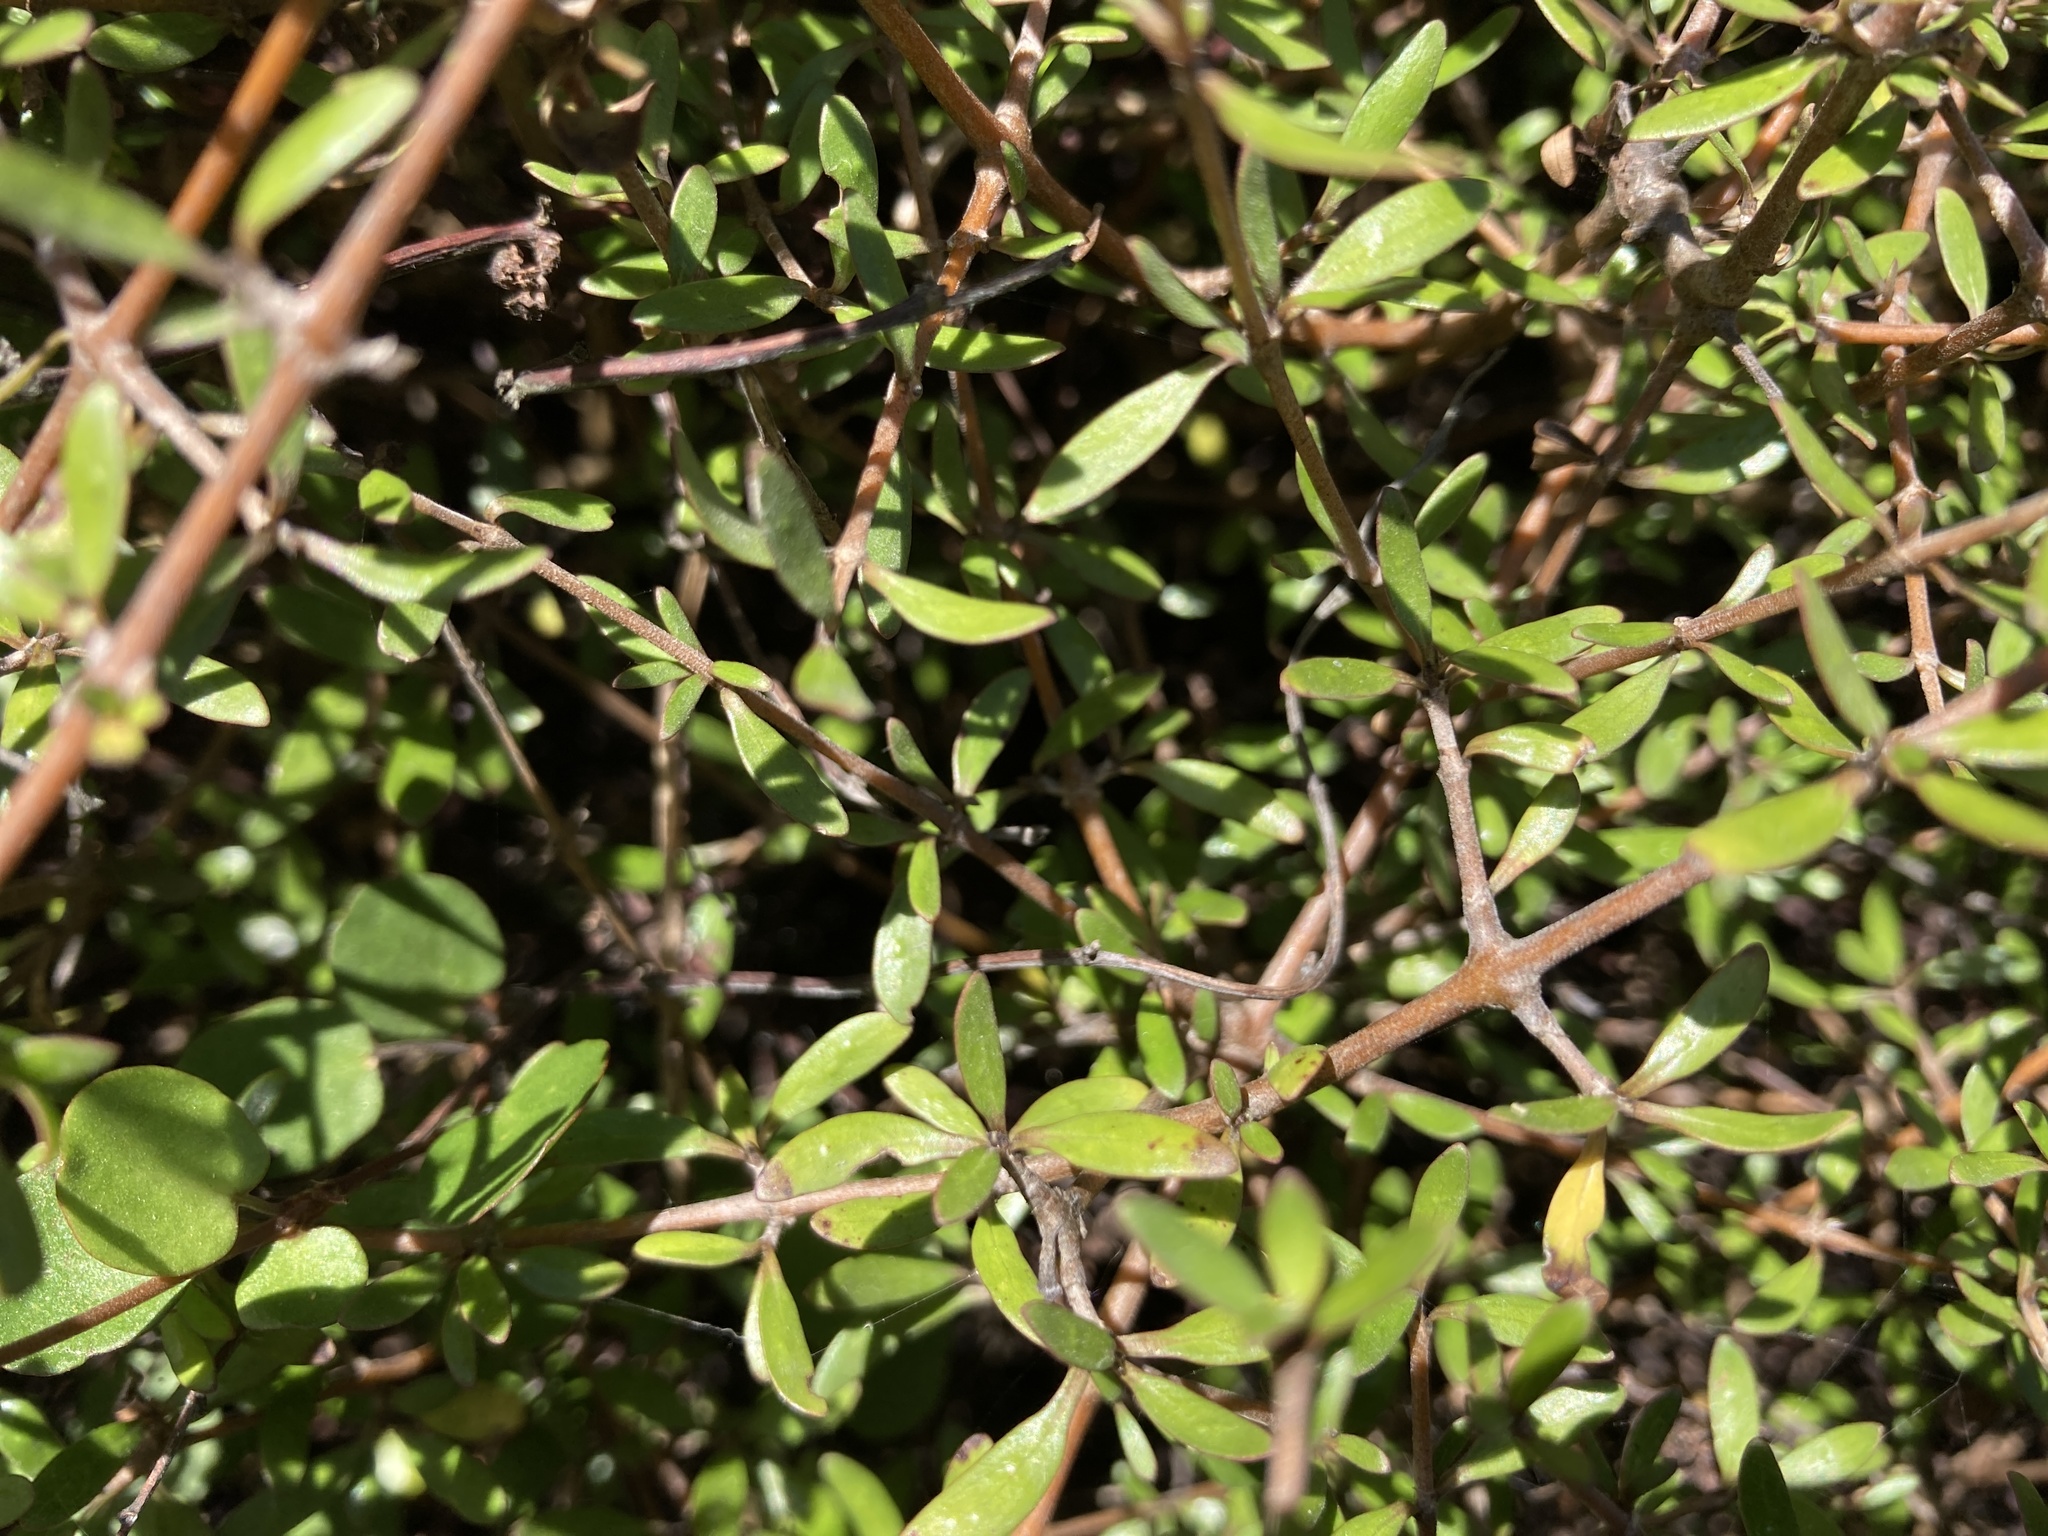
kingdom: Plantae
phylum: Tracheophyta
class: Magnoliopsida
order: Gentianales
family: Rubiaceae
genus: Coprosma
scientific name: Coprosma propinqua
